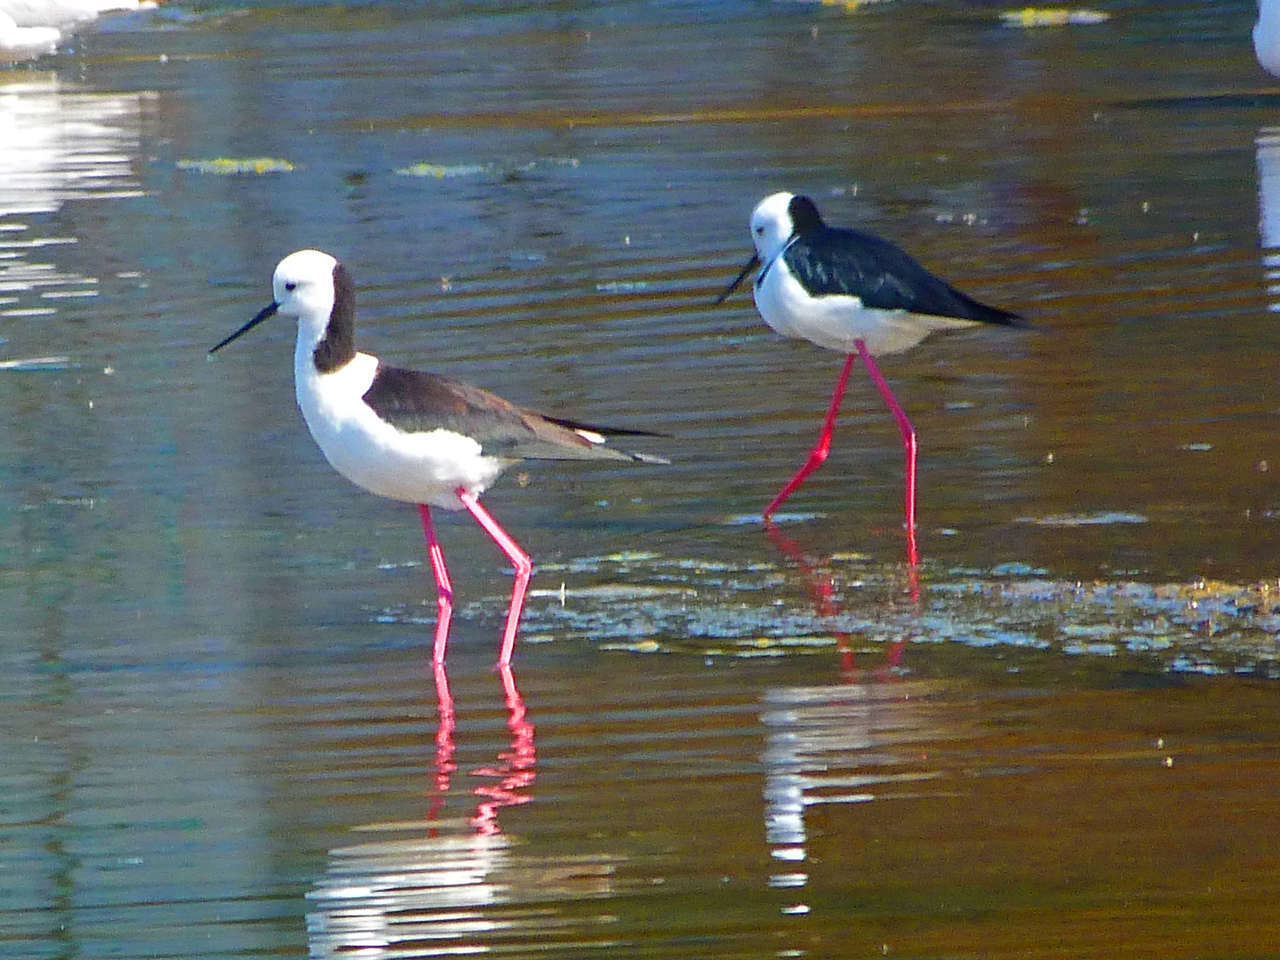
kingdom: Animalia
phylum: Chordata
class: Aves
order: Charadriiformes
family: Recurvirostridae
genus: Himantopus
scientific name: Himantopus leucocephalus
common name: White-headed stilt
